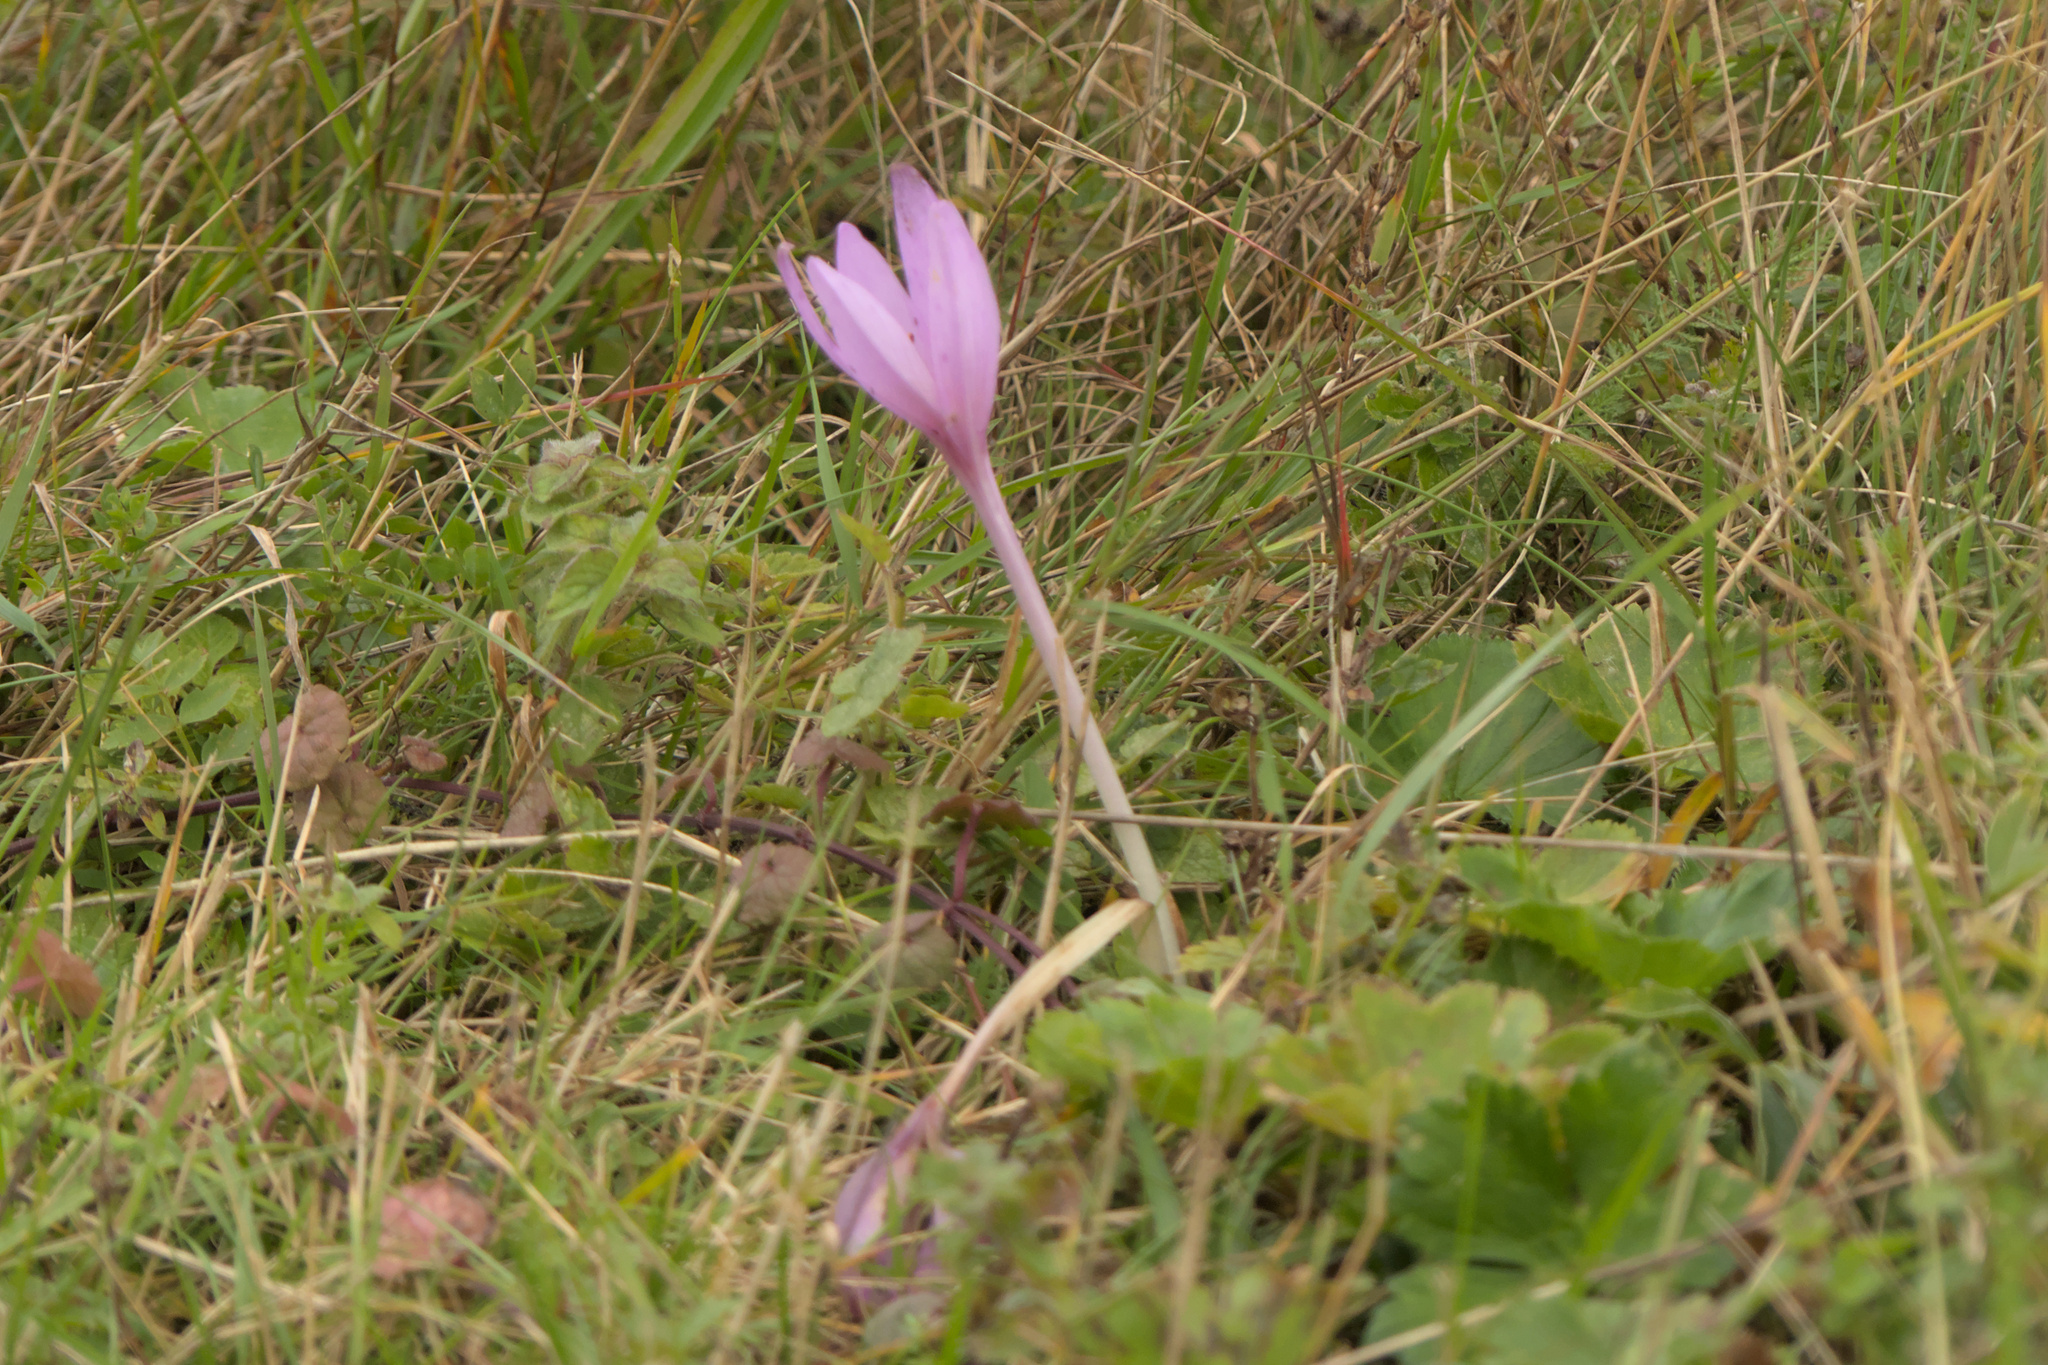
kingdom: Plantae
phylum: Tracheophyta
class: Liliopsida
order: Liliales
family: Colchicaceae
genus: Colchicum
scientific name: Colchicum autumnale
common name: Autumn crocus
